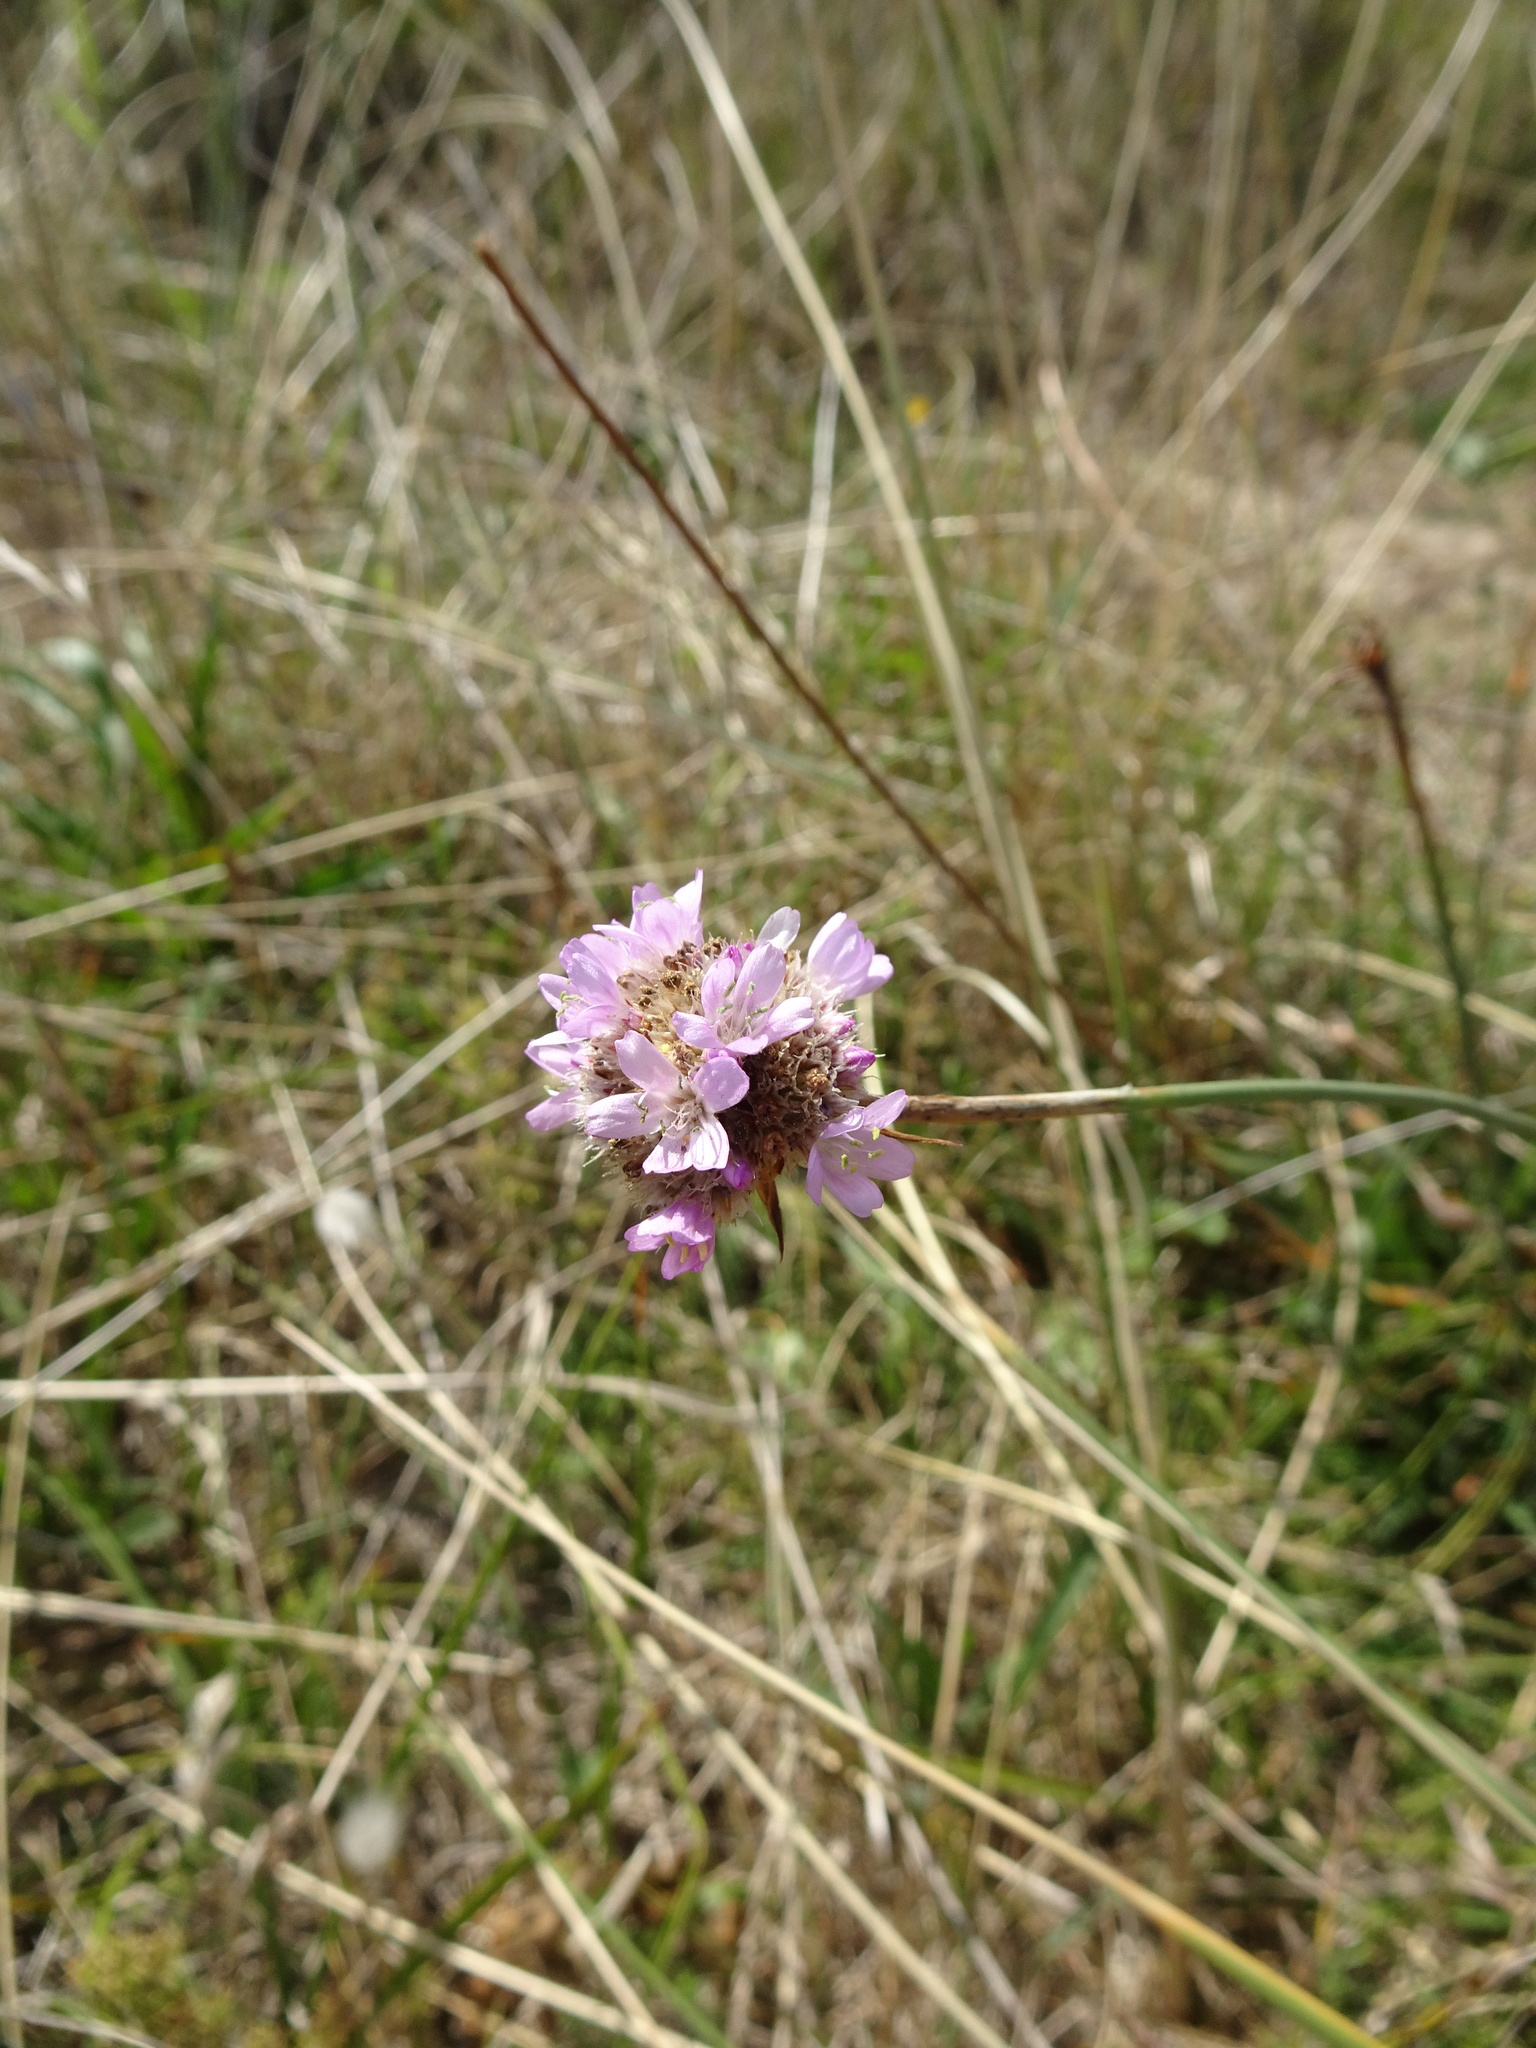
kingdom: Plantae
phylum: Tracheophyta
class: Magnoliopsida
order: Caryophyllales
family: Plumbaginaceae
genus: Armeria
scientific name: Armeria maritima
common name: Thrift
